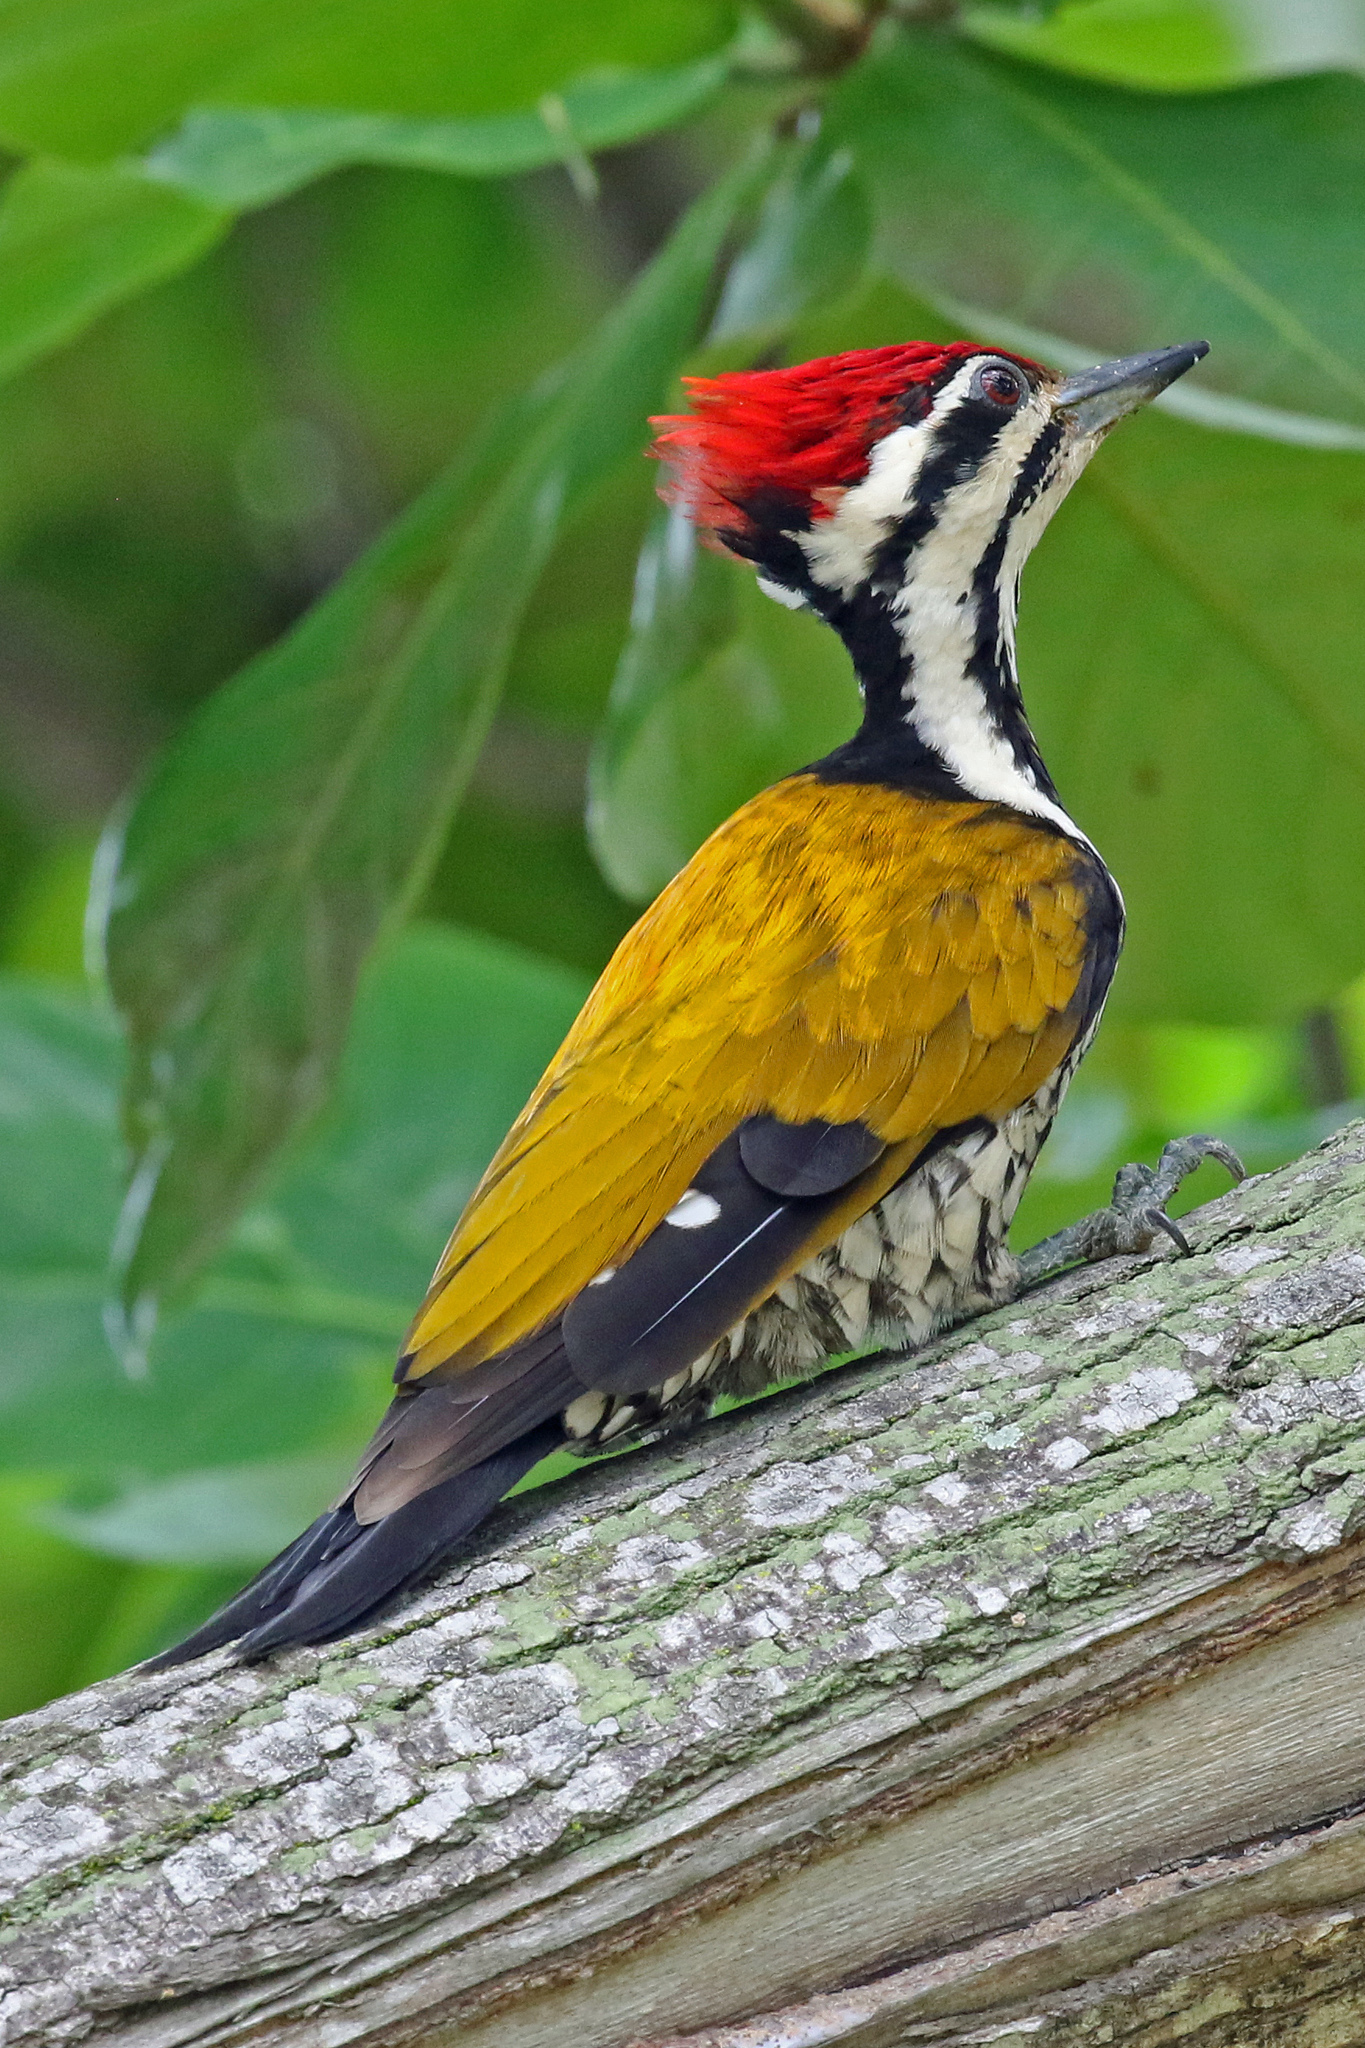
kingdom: Animalia
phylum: Chordata
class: Aves
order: Piciformes
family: Picidae
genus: Dinopium
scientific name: Dinopium javanense
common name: Common flameback
